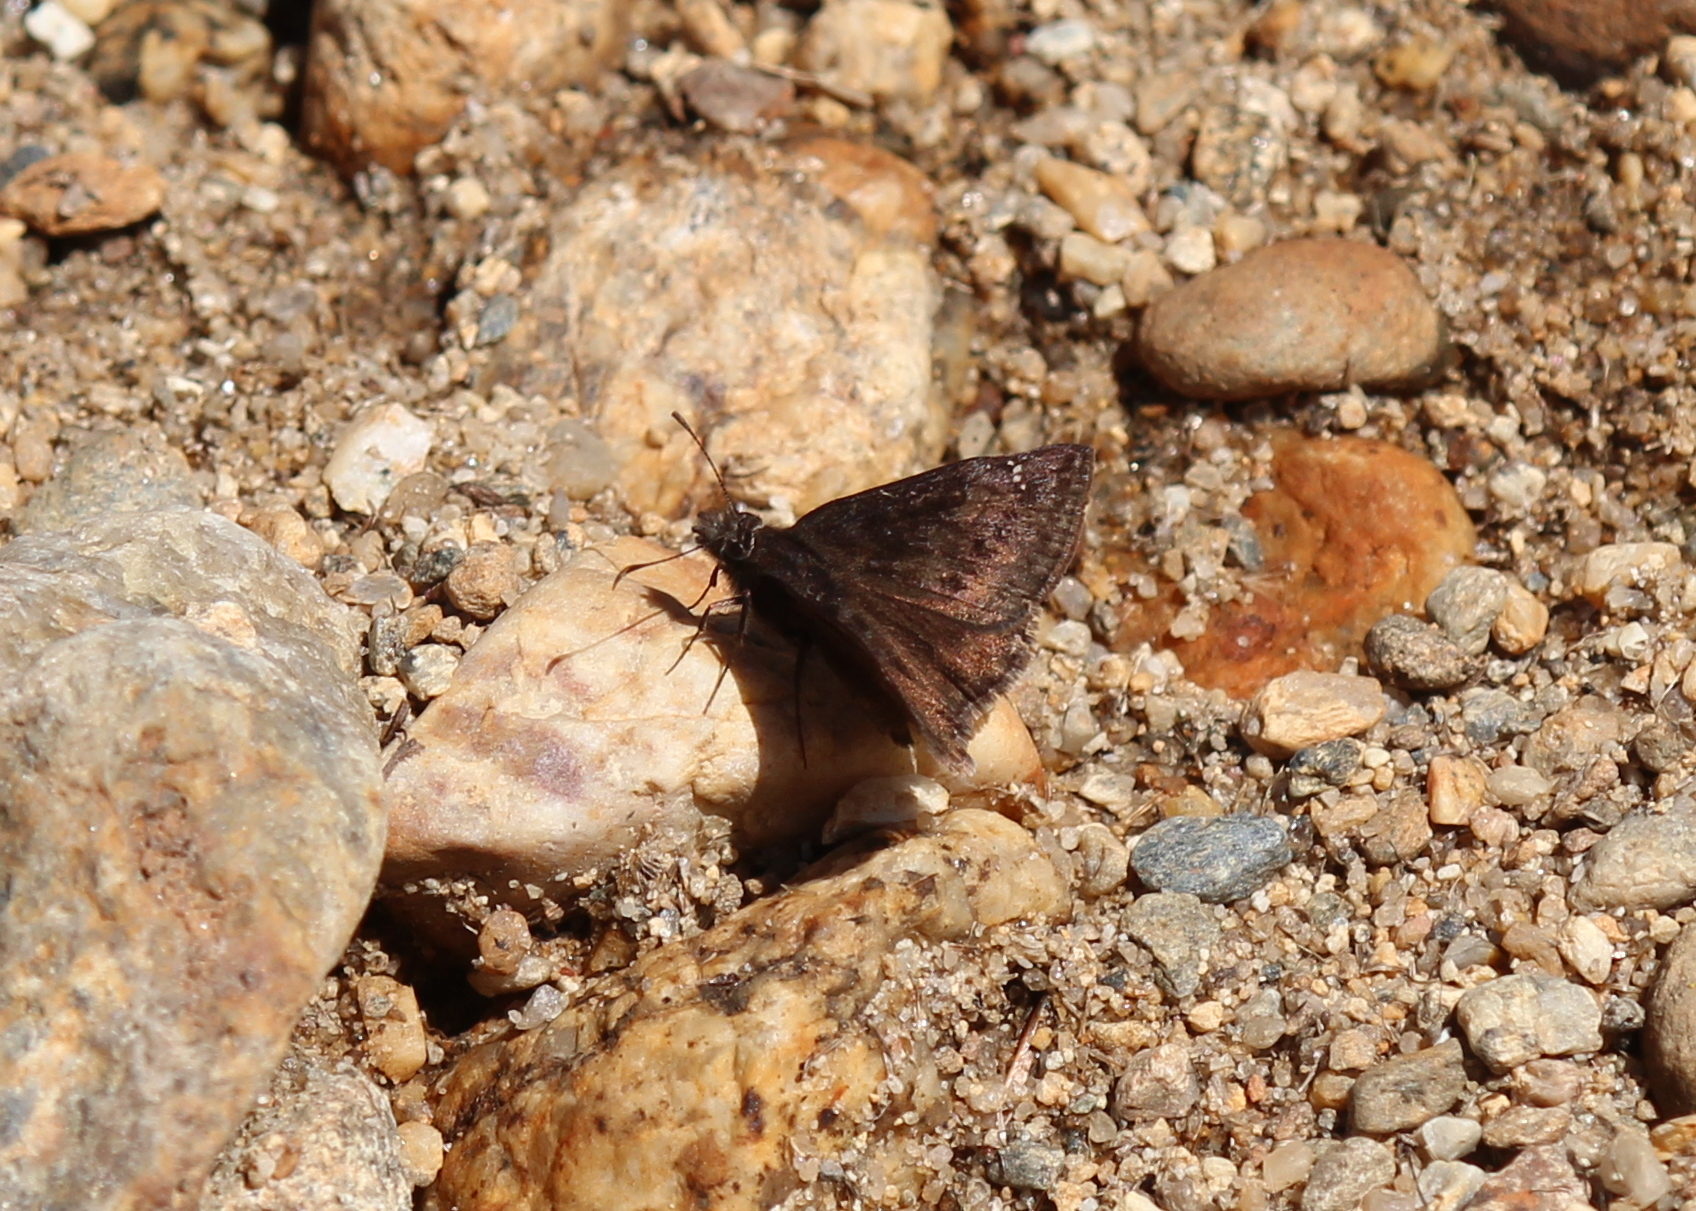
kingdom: Animalia
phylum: Arthropoda
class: Insecta
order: Lepidoptera
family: Hesperiidae
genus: Erynnis
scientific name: Erynnis baptisiae
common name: Wild indigo duskywing
